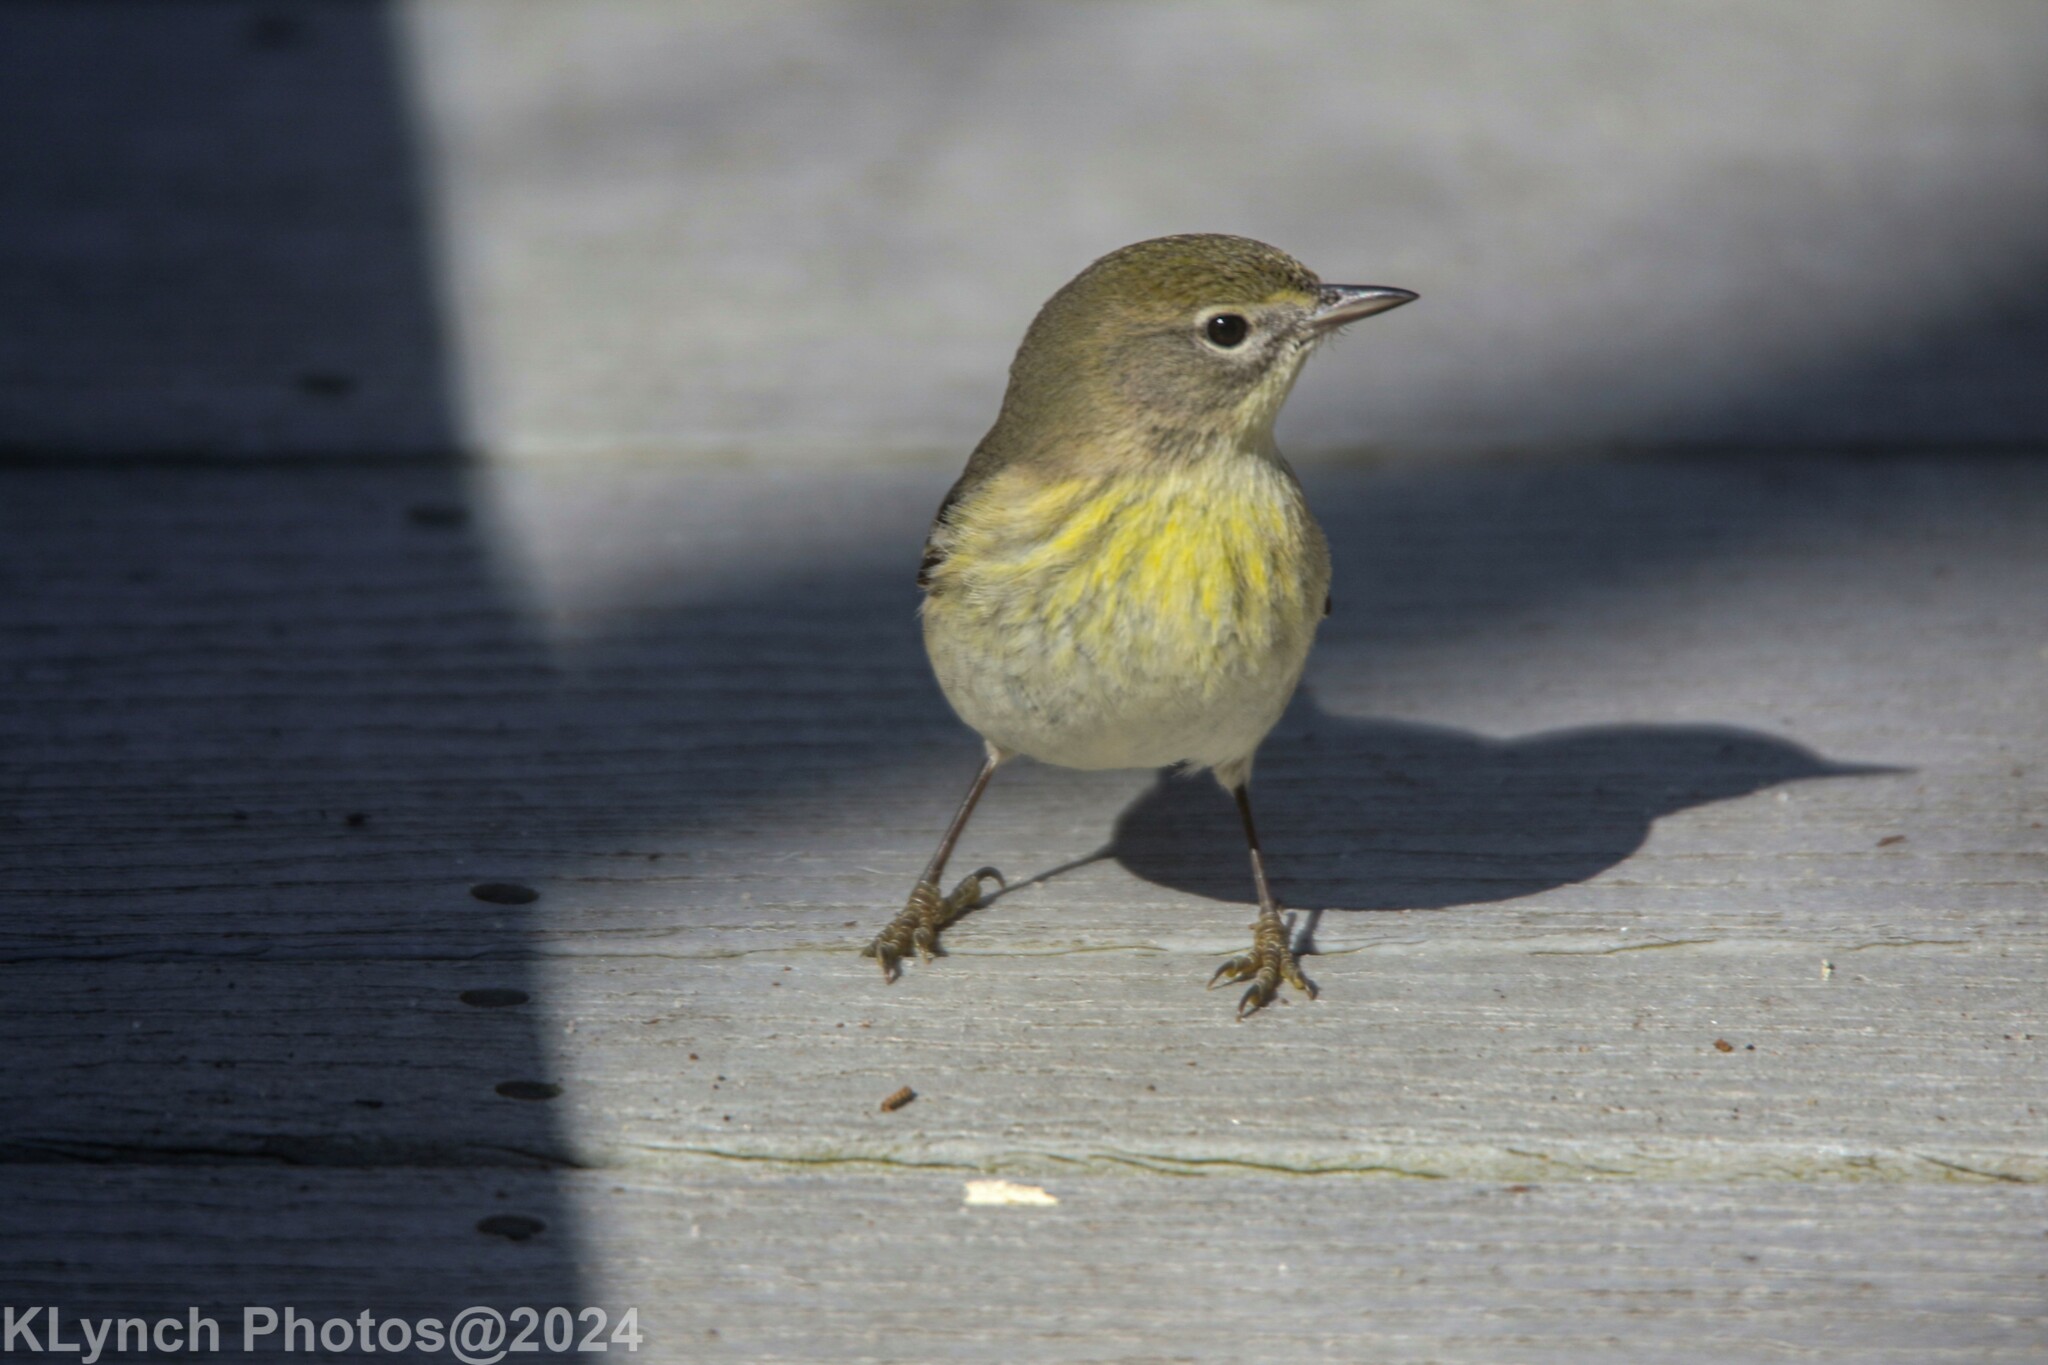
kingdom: Animalia
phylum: Chordata
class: Aves
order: Passeriformes
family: Parulidae
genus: Setophaga
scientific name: Setophaga pinus
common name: Pine warbler
